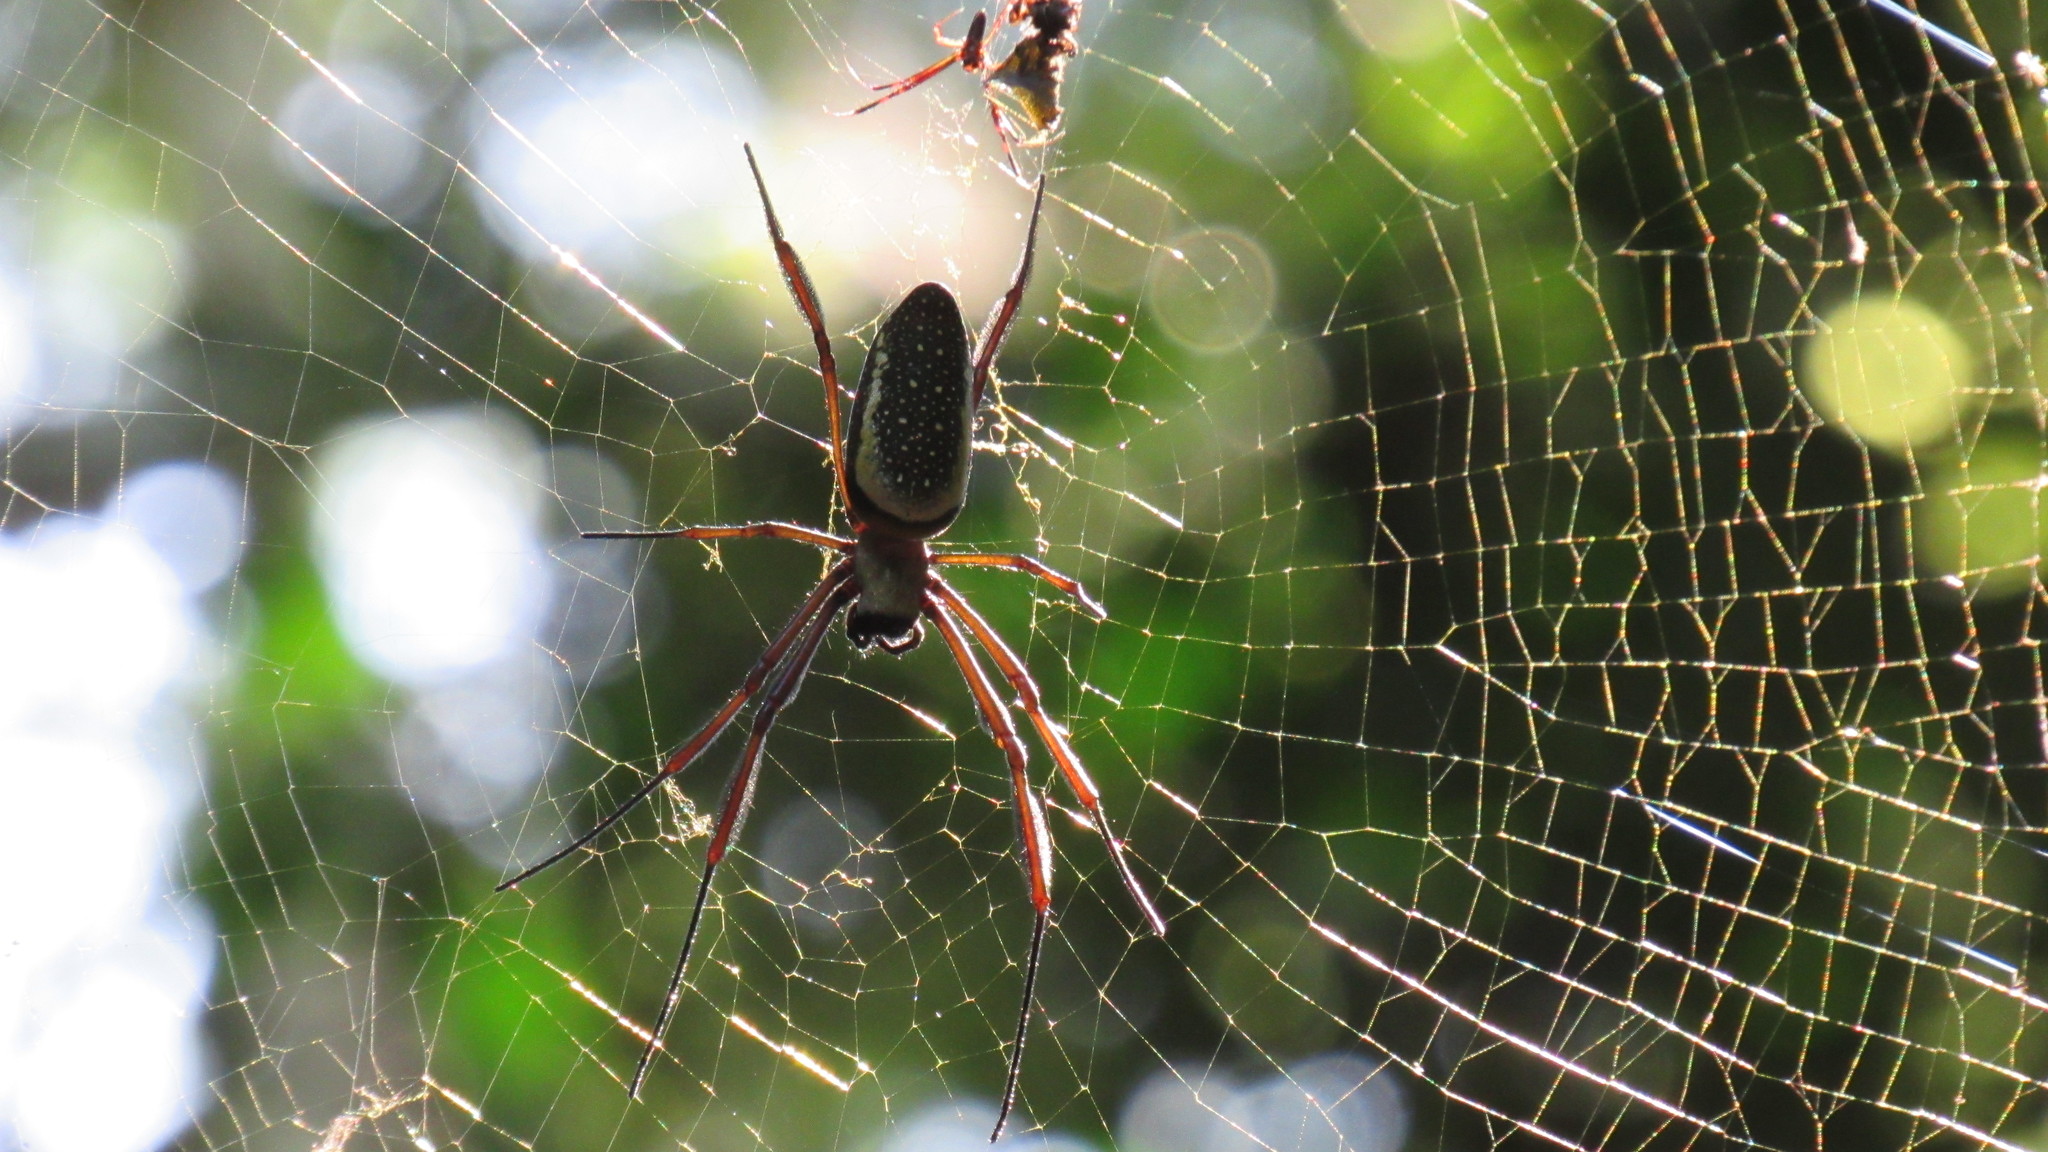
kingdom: Animalia
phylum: Arthropoda
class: Arachnida
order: Araneae
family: Araneidae
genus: Trichonephila
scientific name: Trichonephila clavipes
